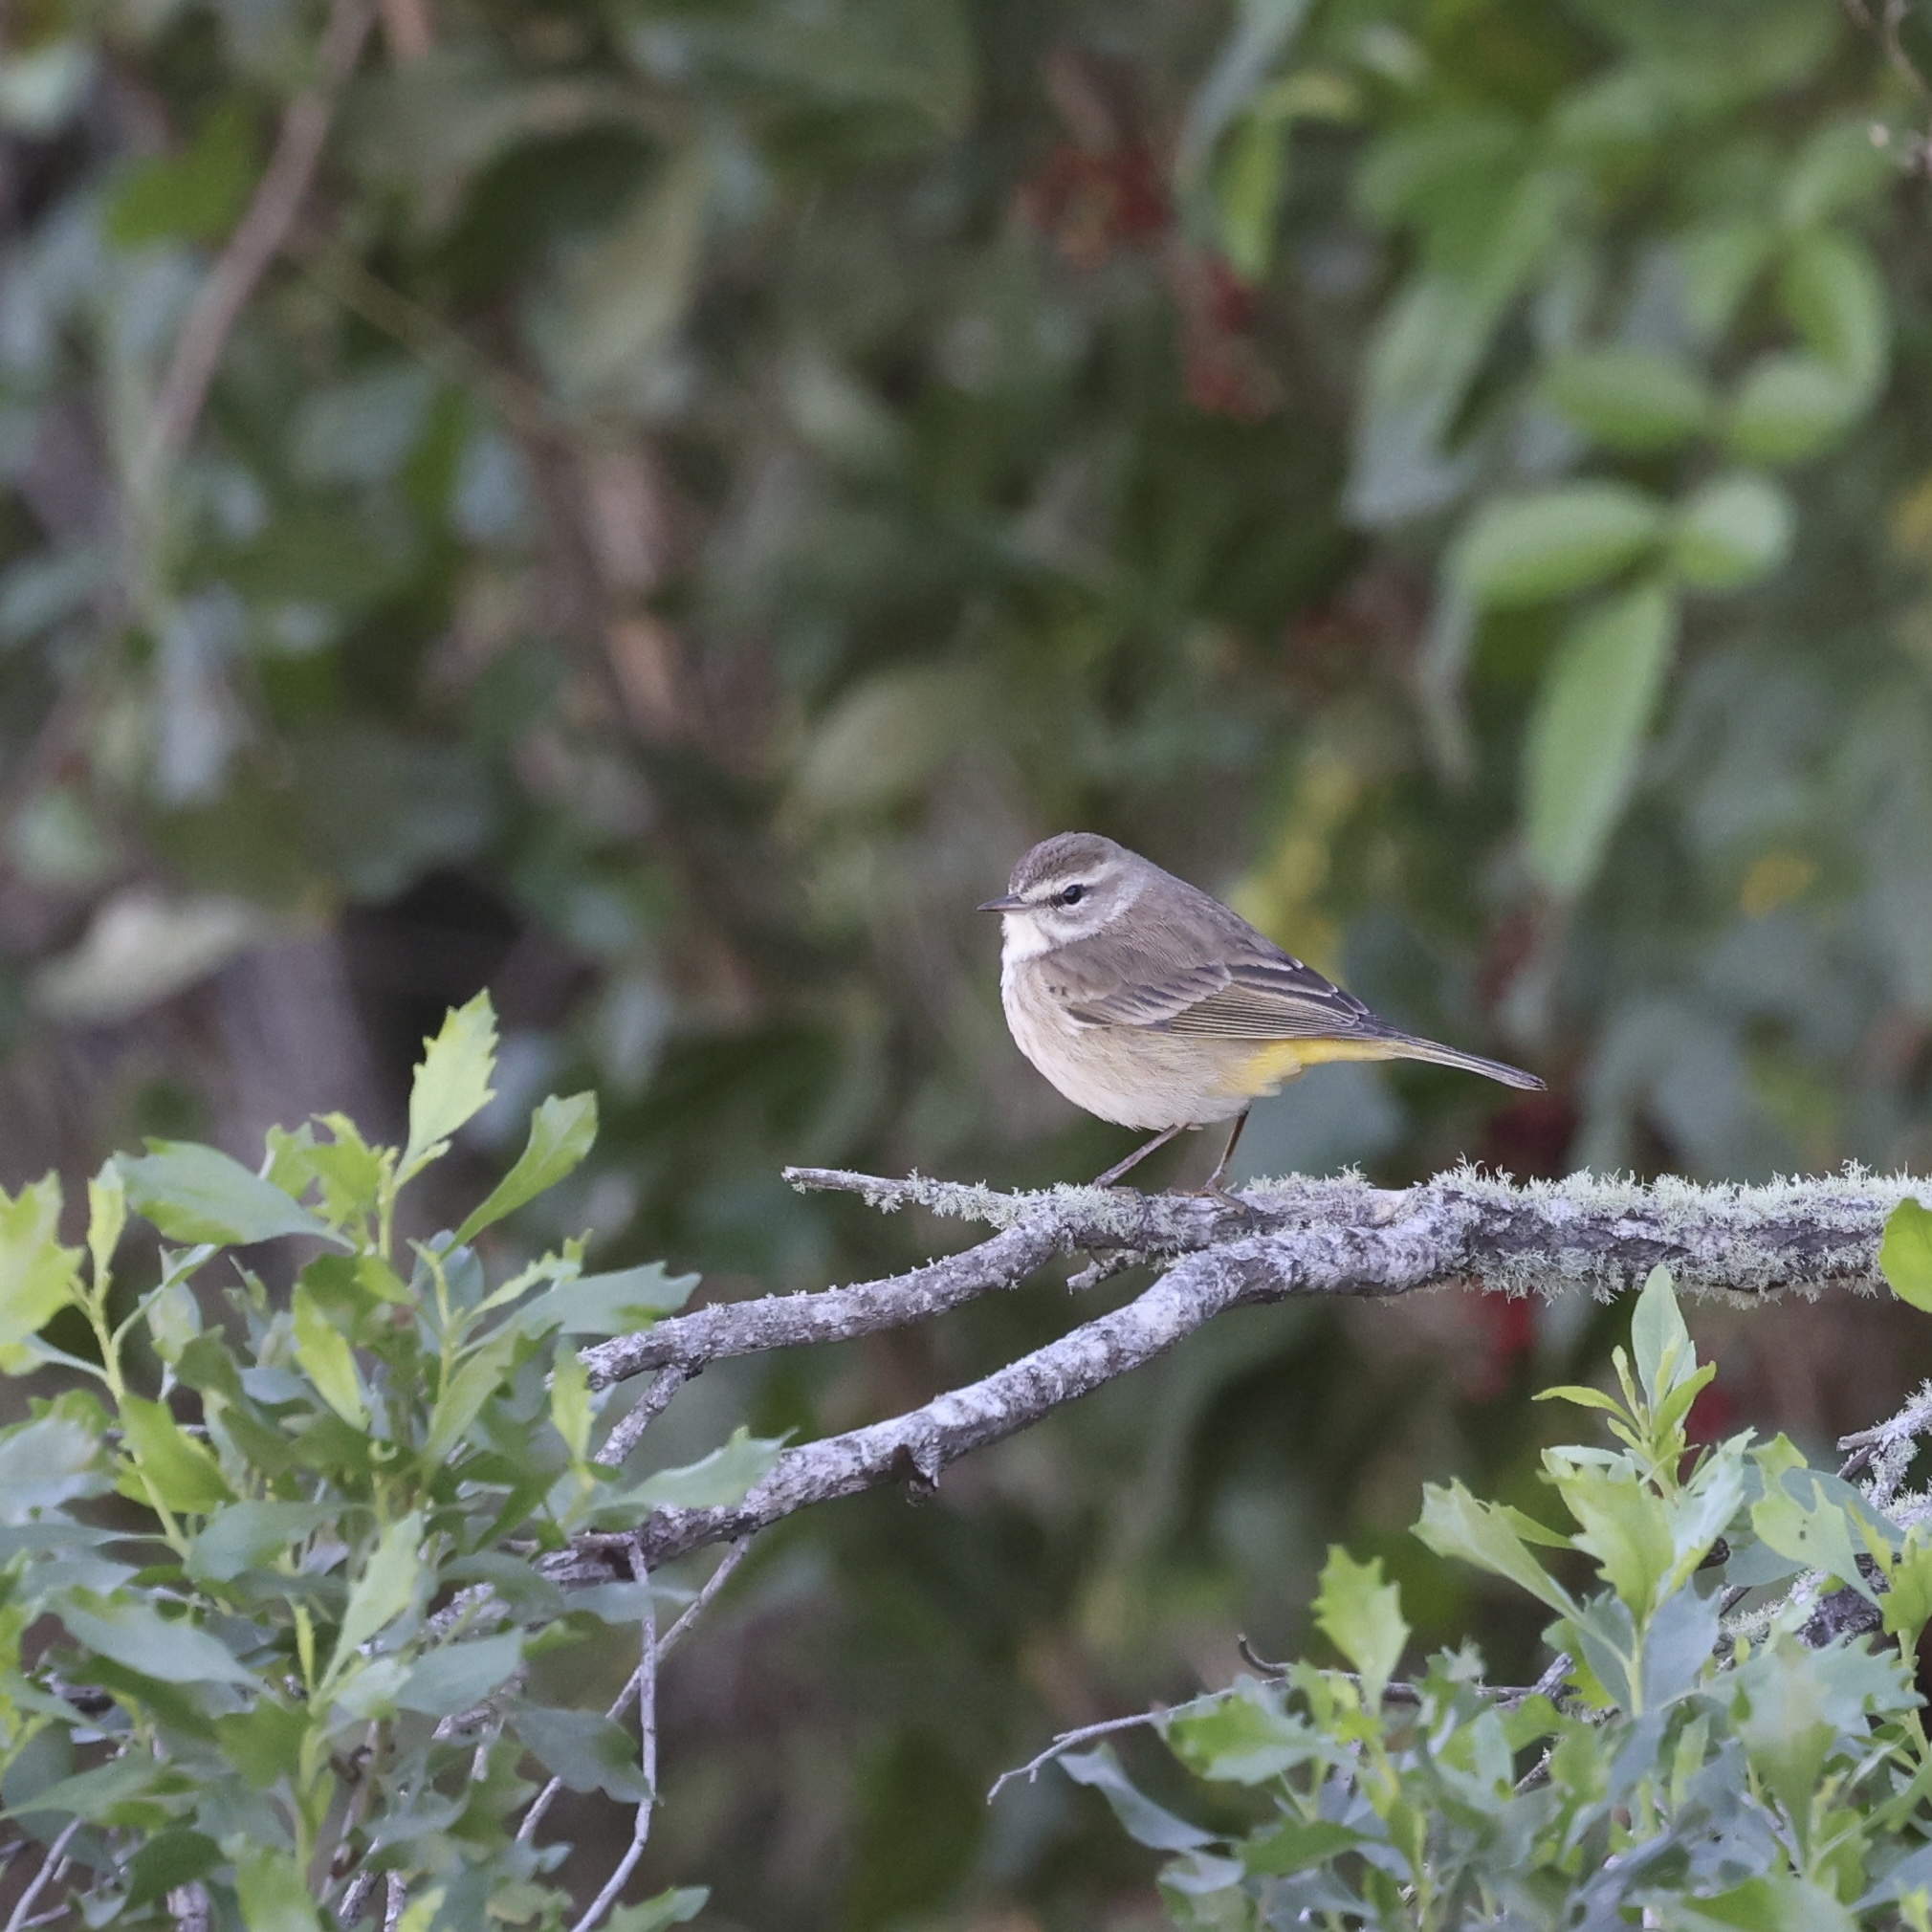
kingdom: Animalia
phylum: Chordata
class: Aves
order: Passeriformes
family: Parulidae
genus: Setophaga
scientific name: Setophaga palmarum
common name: Palm warbler
